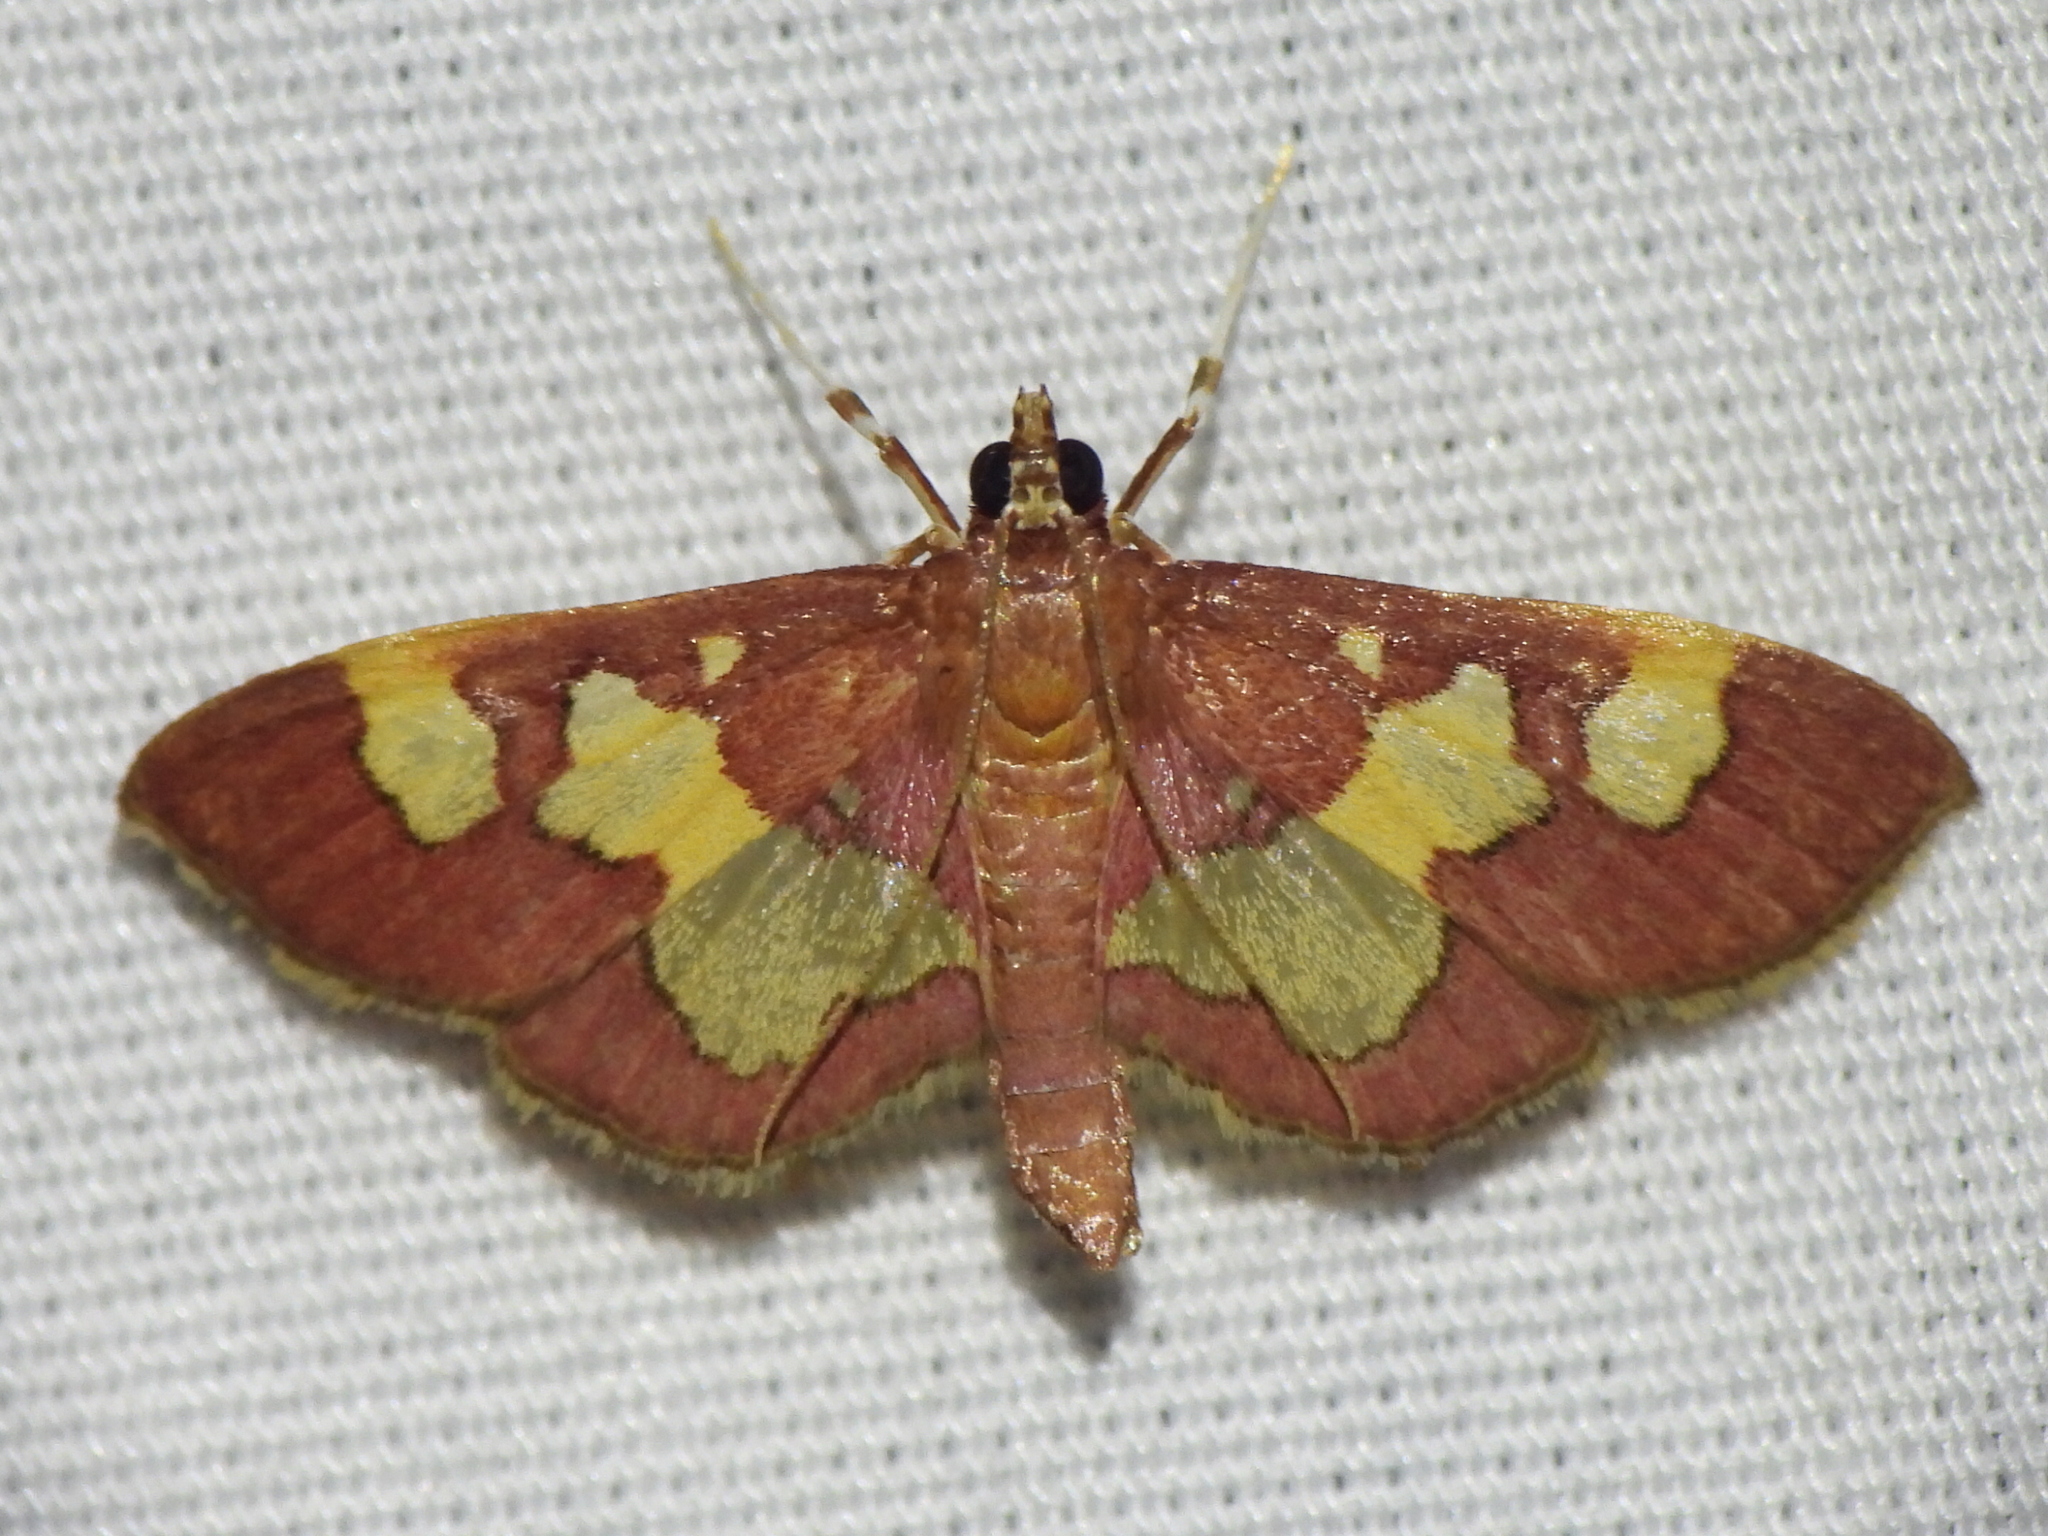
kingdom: Animalia
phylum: Arthropoda
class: Insecta
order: Lepidoptera
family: Crambidae
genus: Colomychus
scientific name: Colomychus talis
